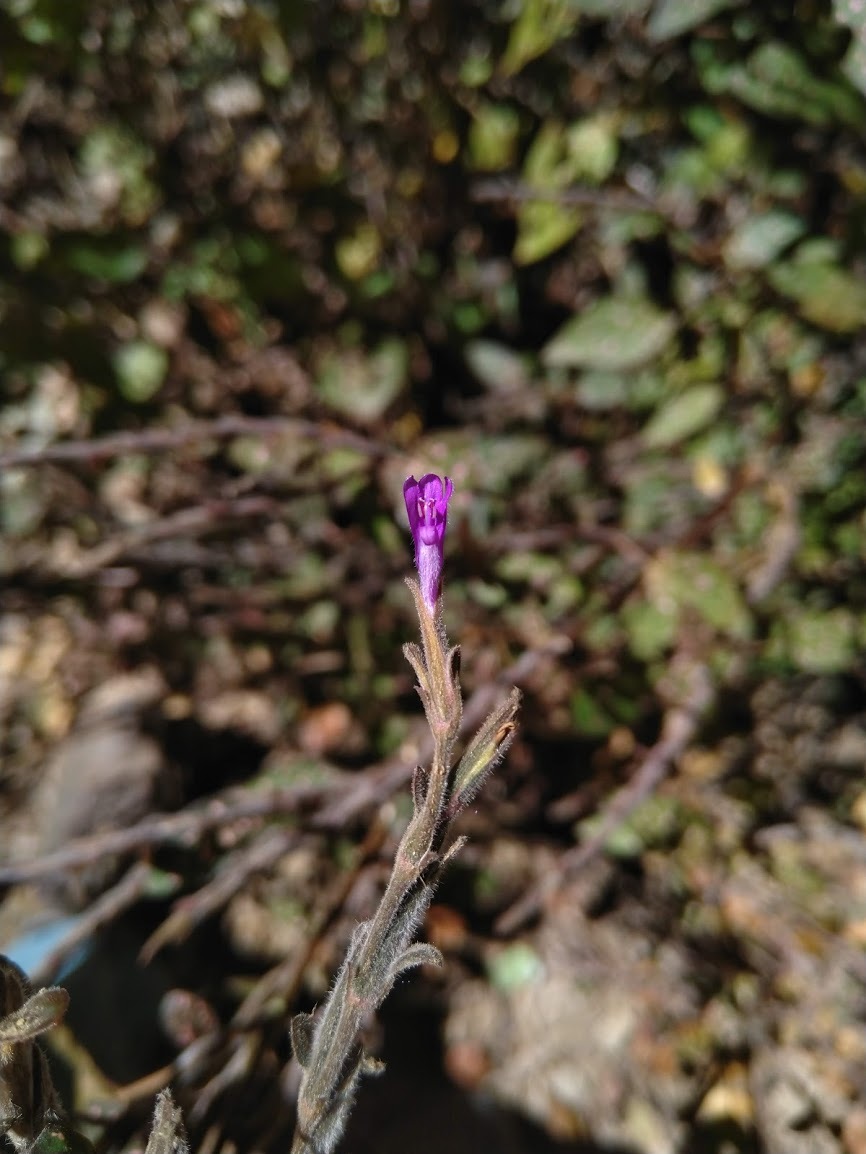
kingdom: Plantae
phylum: Tracheophyta
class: Magnoliopsida
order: Lamiales
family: Acanthaceae
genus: Hypoestes
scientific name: Hypoestes phyllostachya
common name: Polkadot-plant
